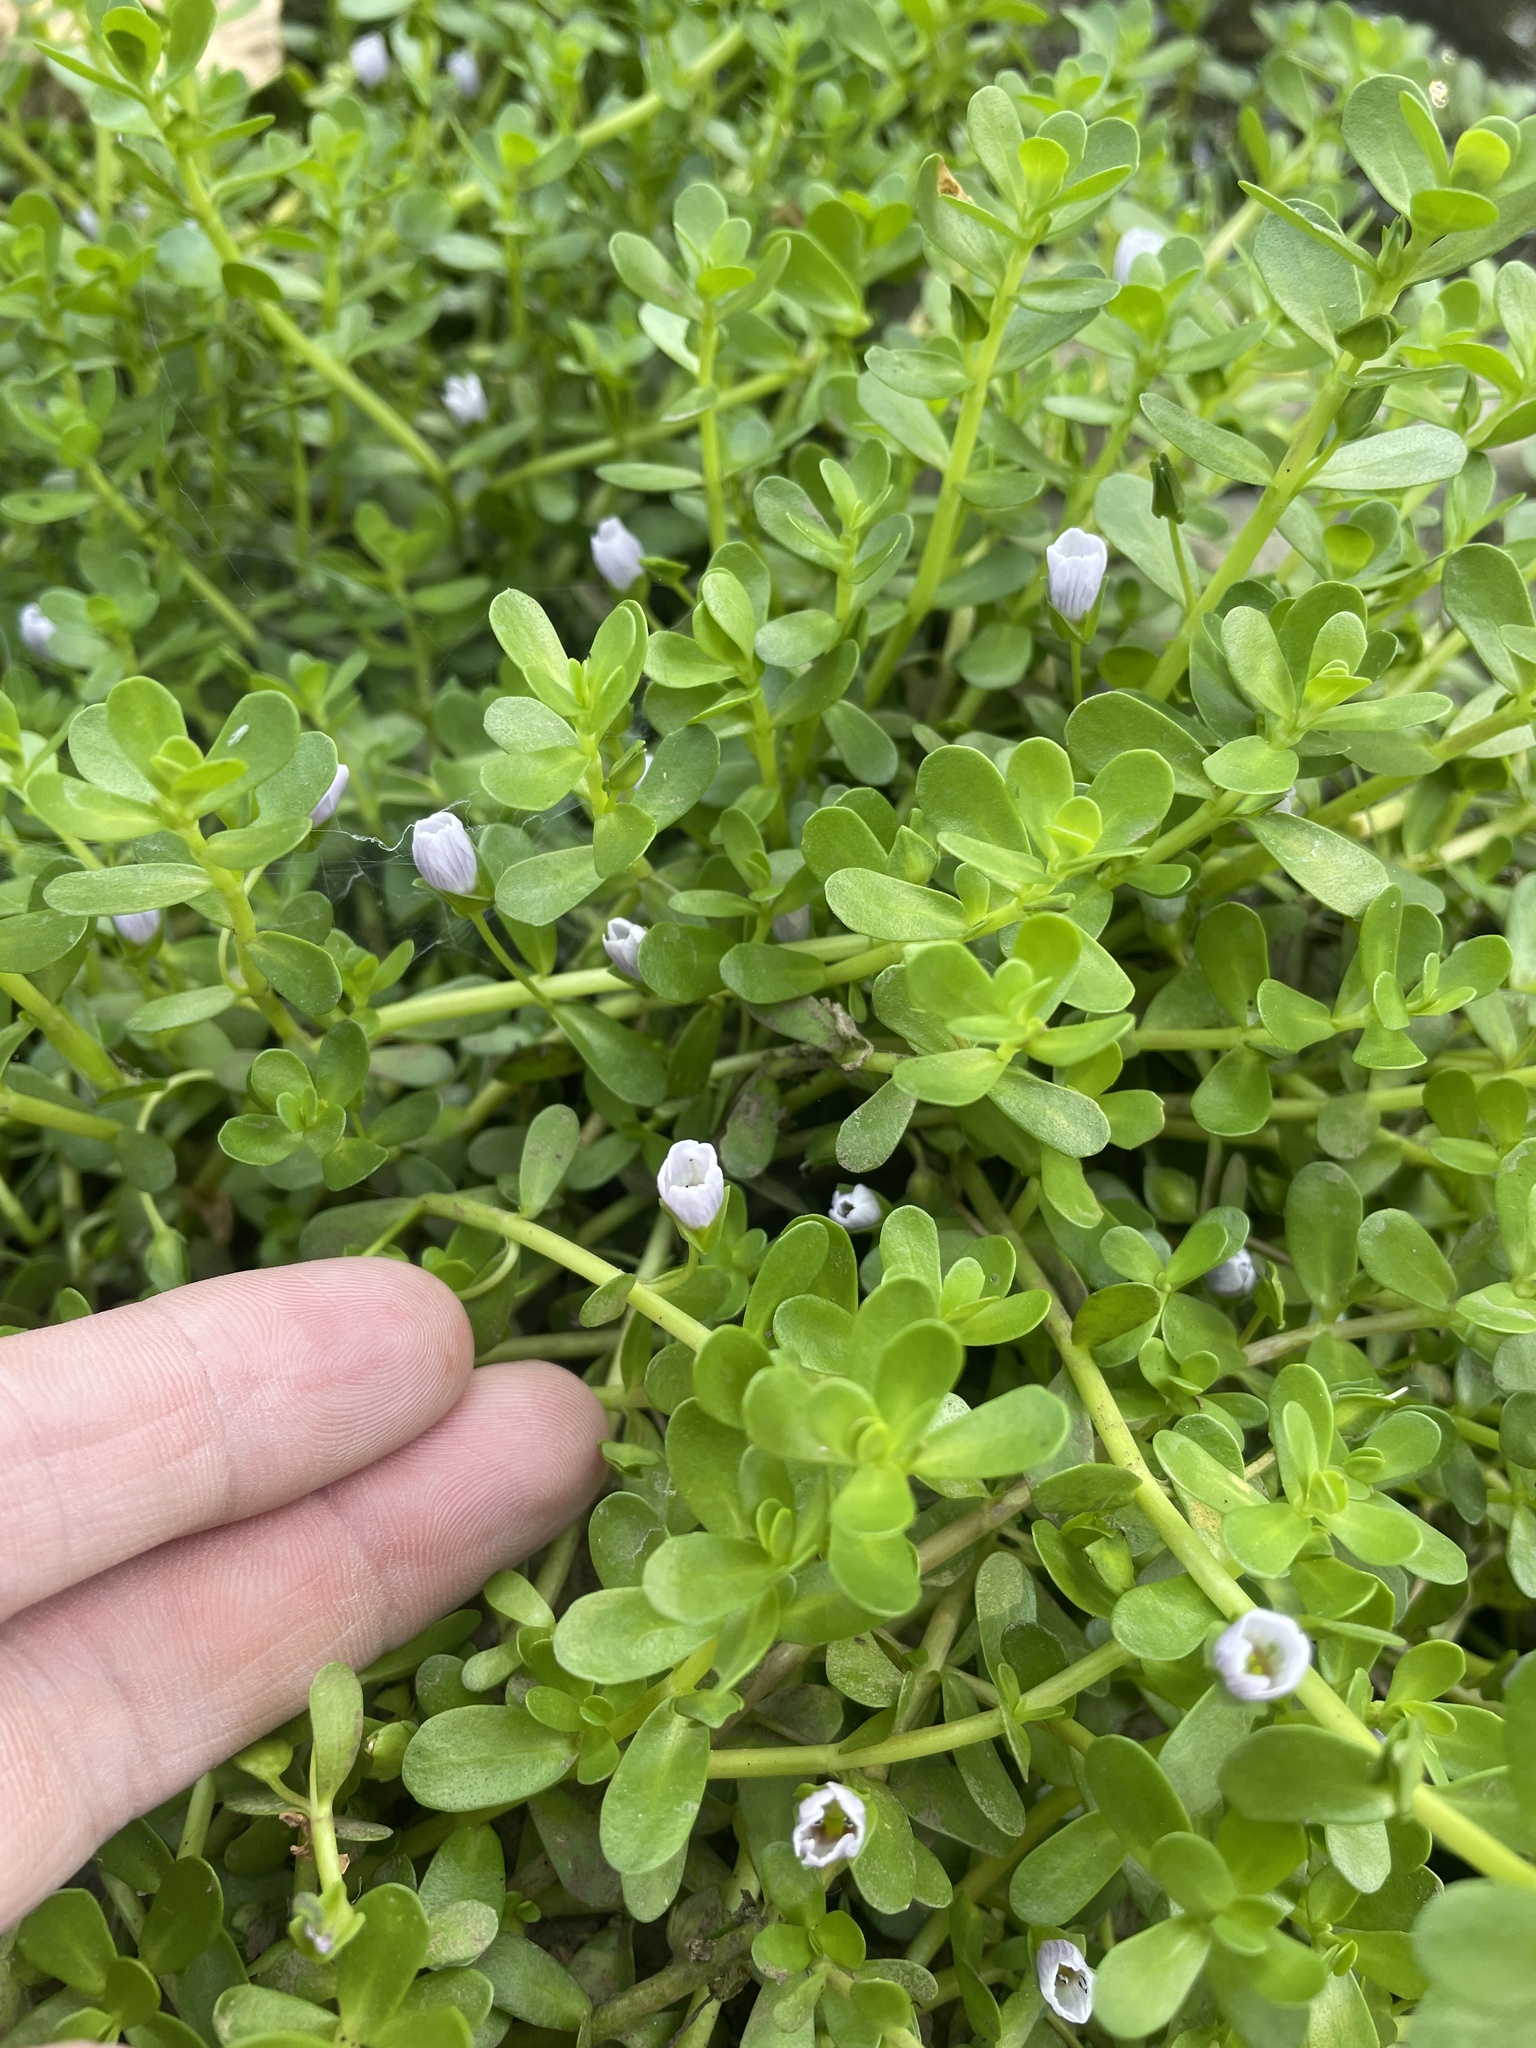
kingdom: Plantae
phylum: Tracheophyta
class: Magnoliopsida
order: Lamiales
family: Plantaginaceae
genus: Bacopa
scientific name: Bacopa monnieri
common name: Indian-pennywort
